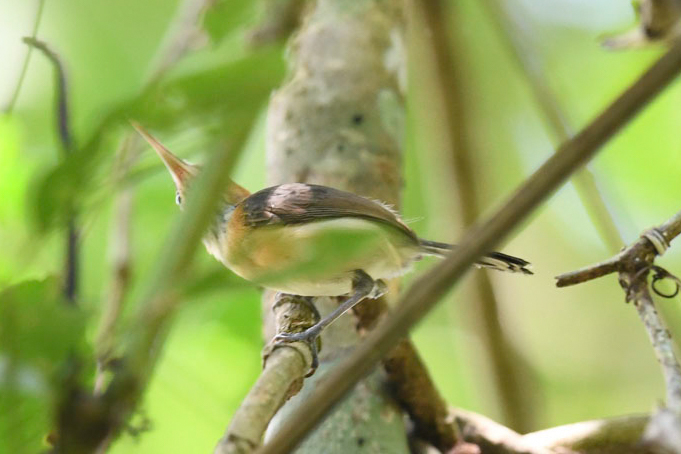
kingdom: Animalia
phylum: Chordata
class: Aves
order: Passeriformes
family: Polioptilidae
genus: Ramphocaenus
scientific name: Ramphocaenus melanurus
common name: Long-billed gnatwren
